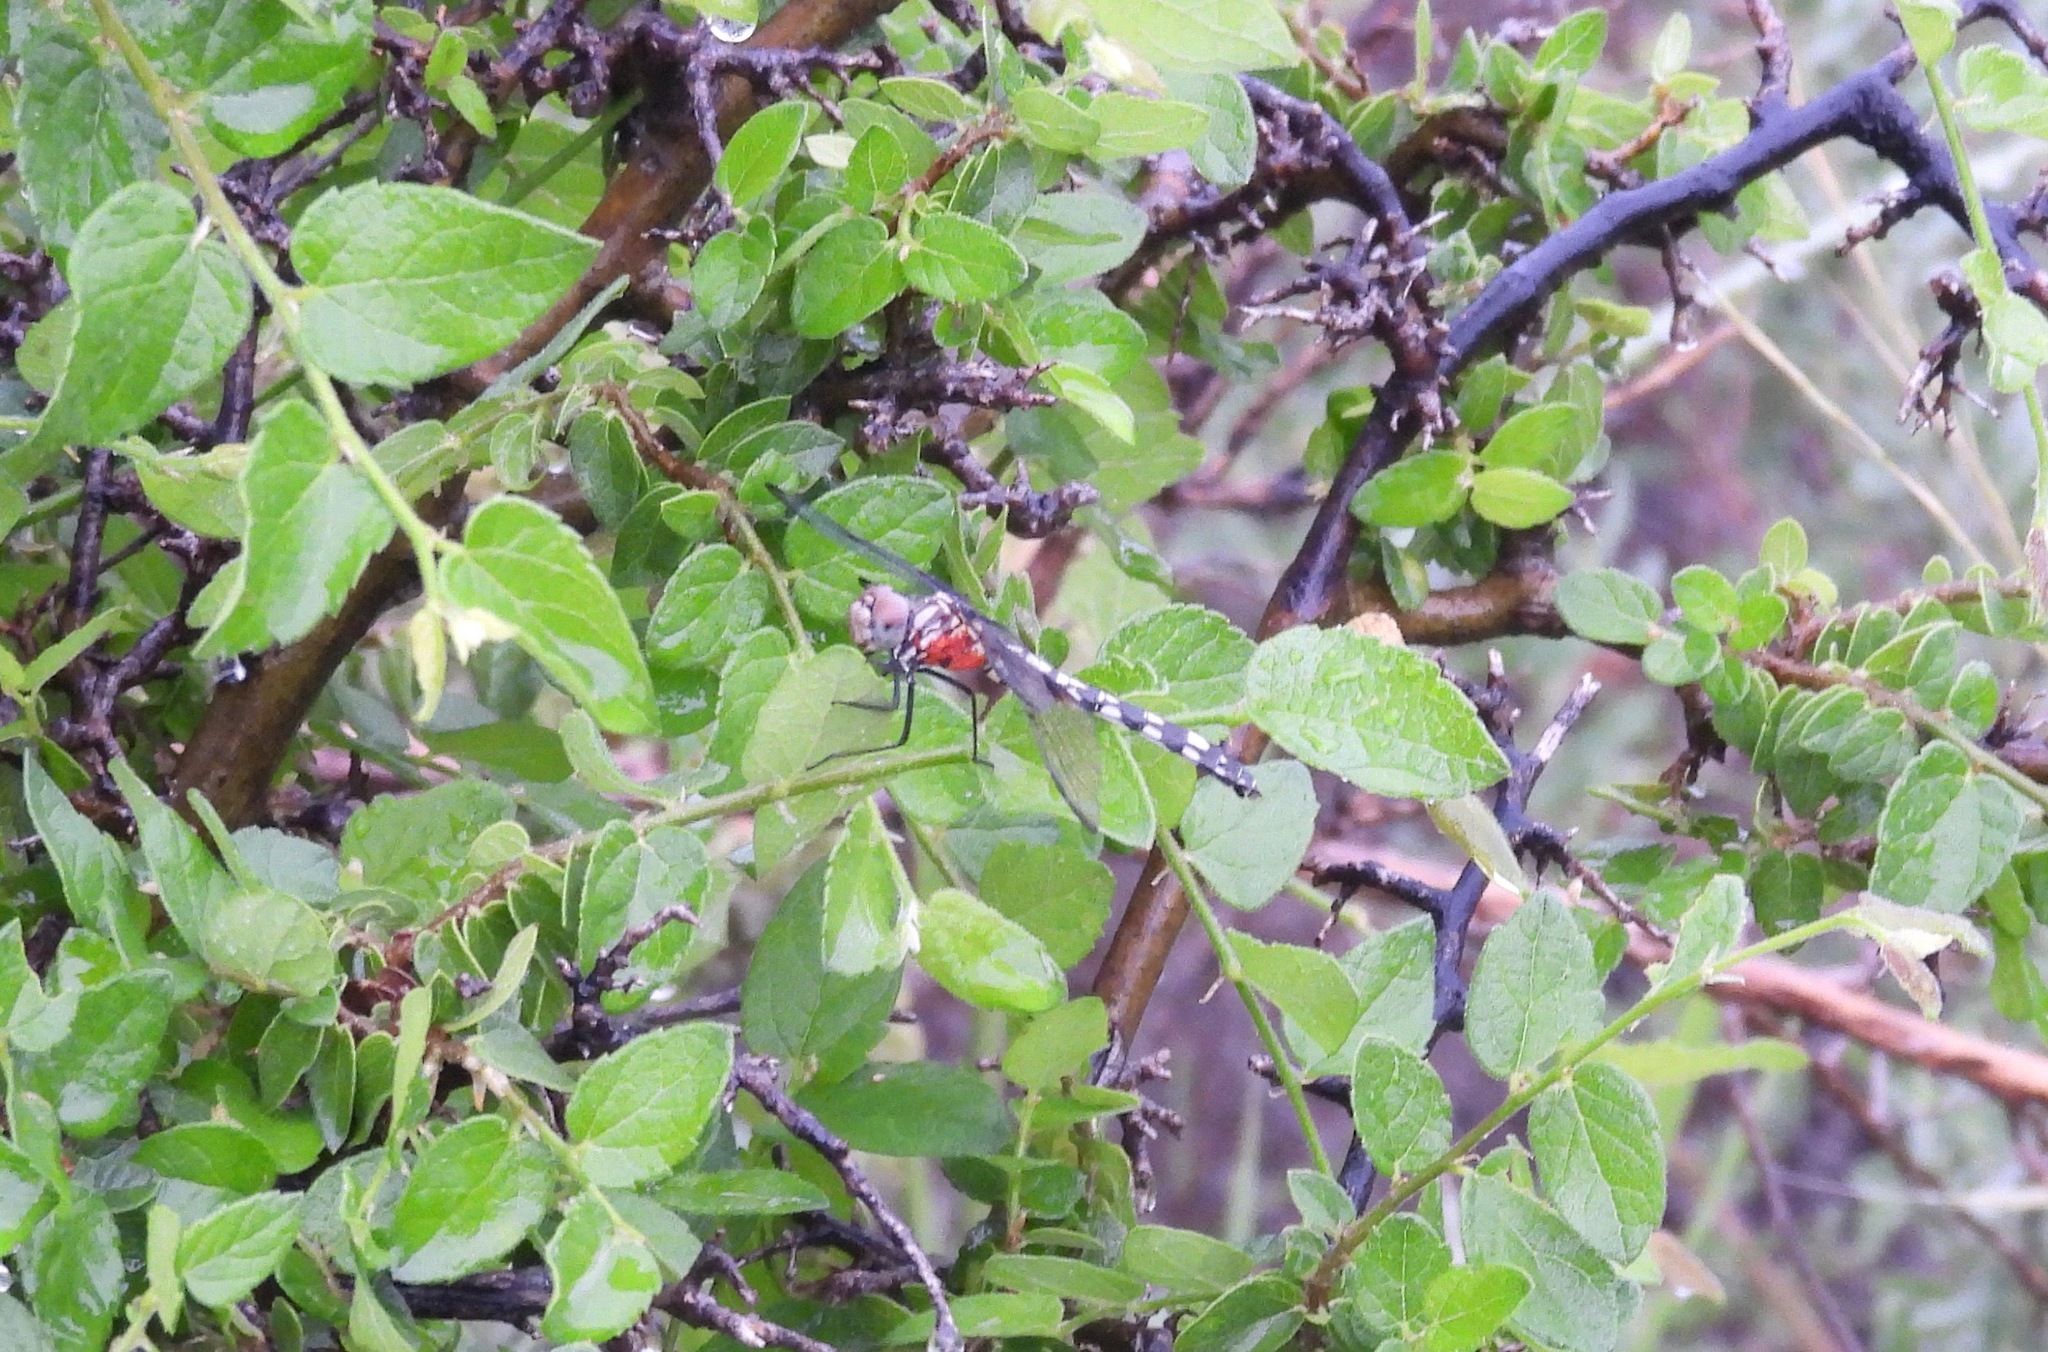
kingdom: Animalia
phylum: Arthropoda
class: Insecta
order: Odonata
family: Libellulidae
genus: Dythemis
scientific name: Dythemis fugax
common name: Checkered setwing
